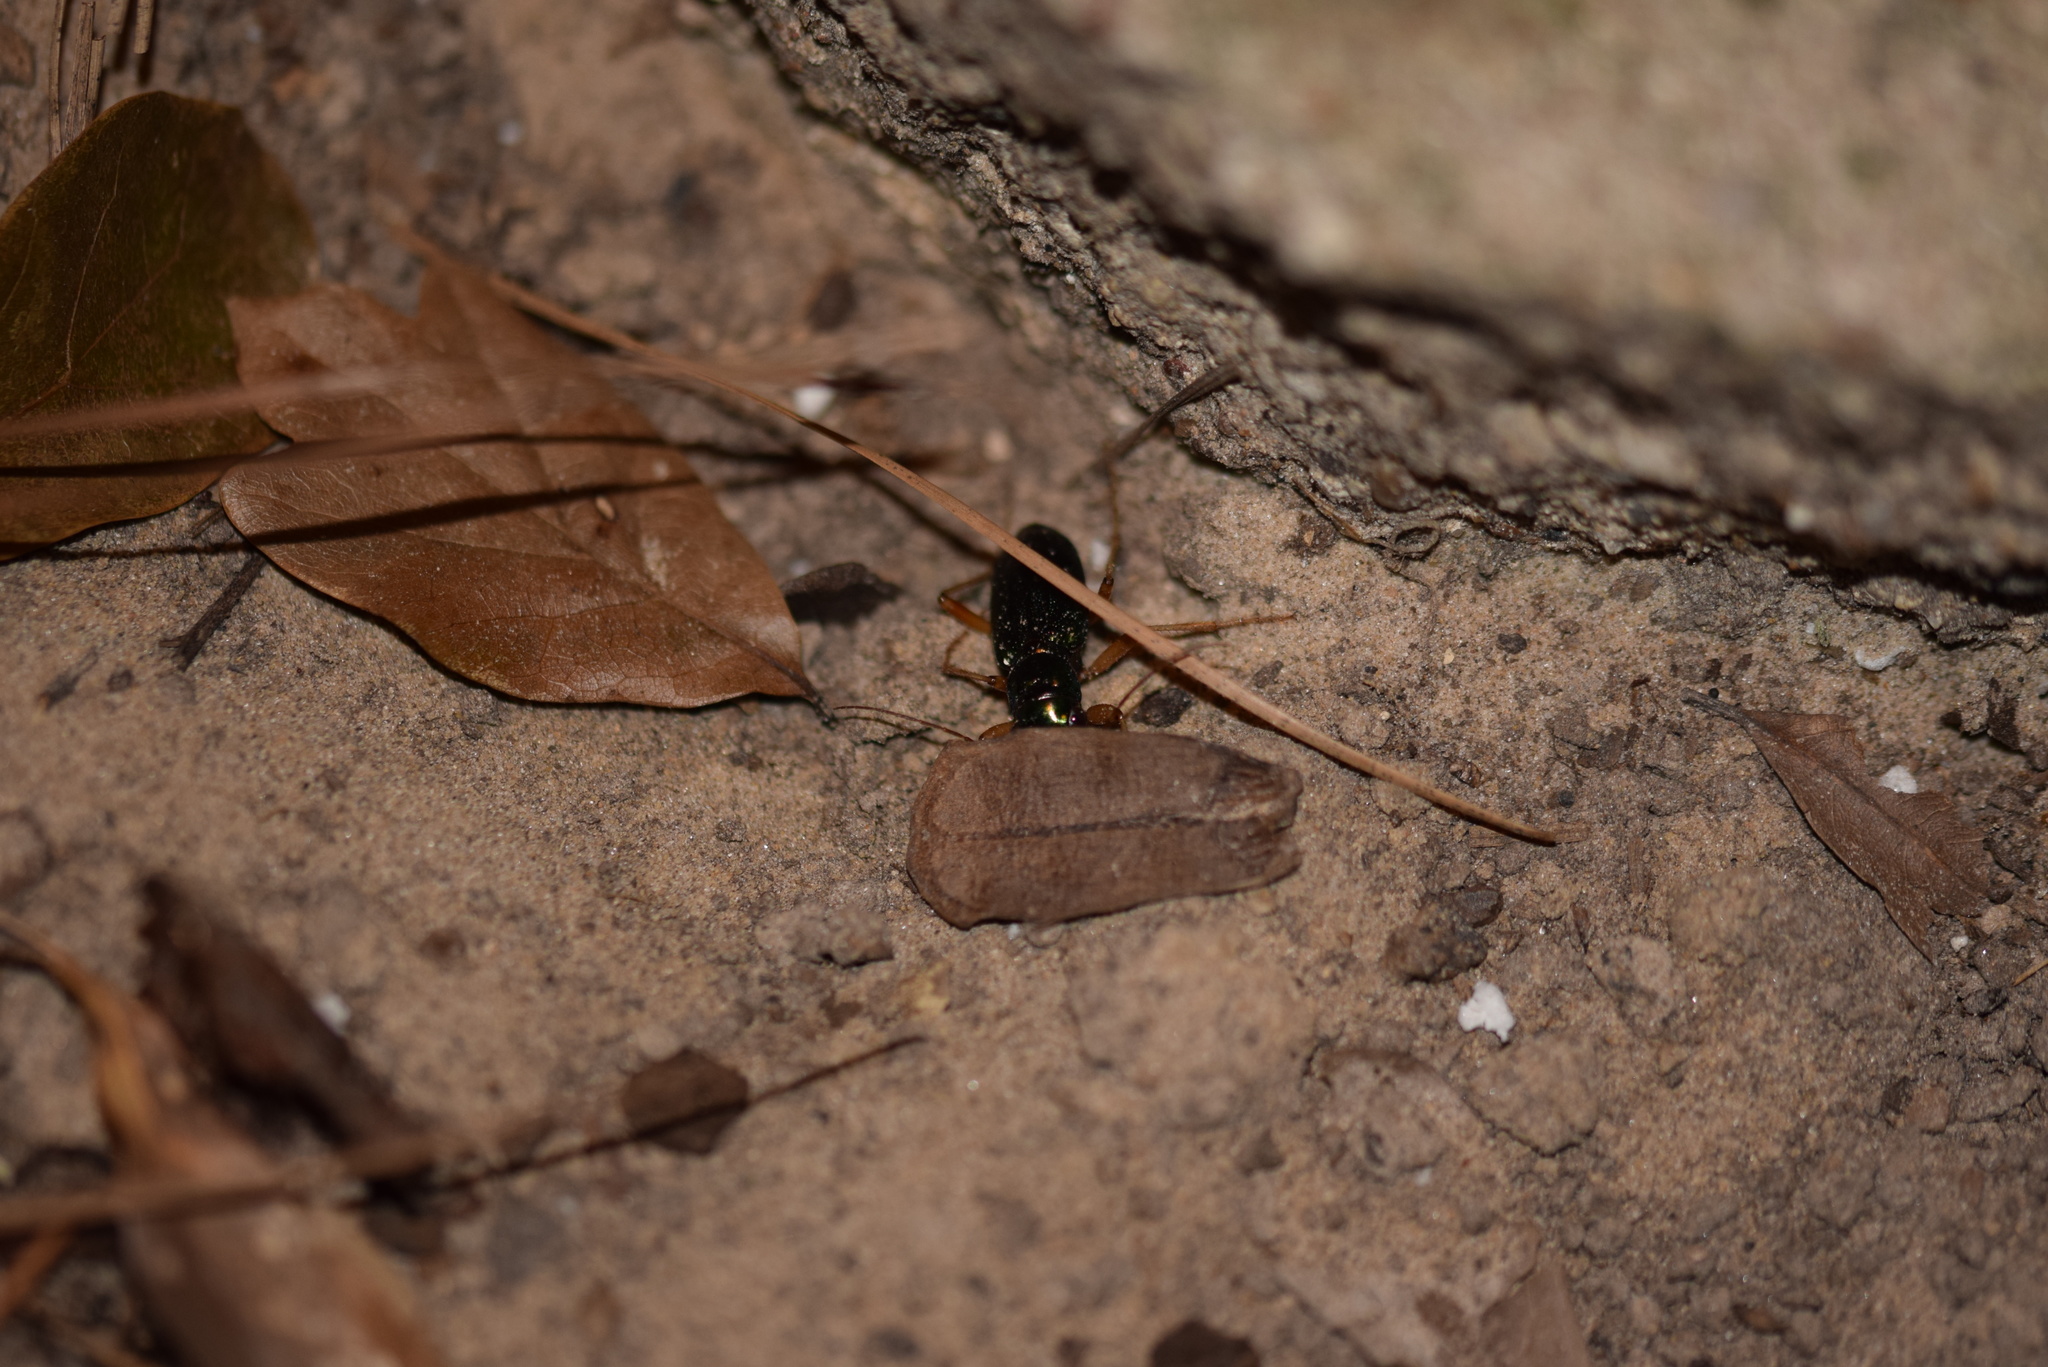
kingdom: Animalia
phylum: Arthropoda
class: Insecta
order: Coleoptera
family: Carabidae
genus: Tetracha
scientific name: Tetracha virginica
